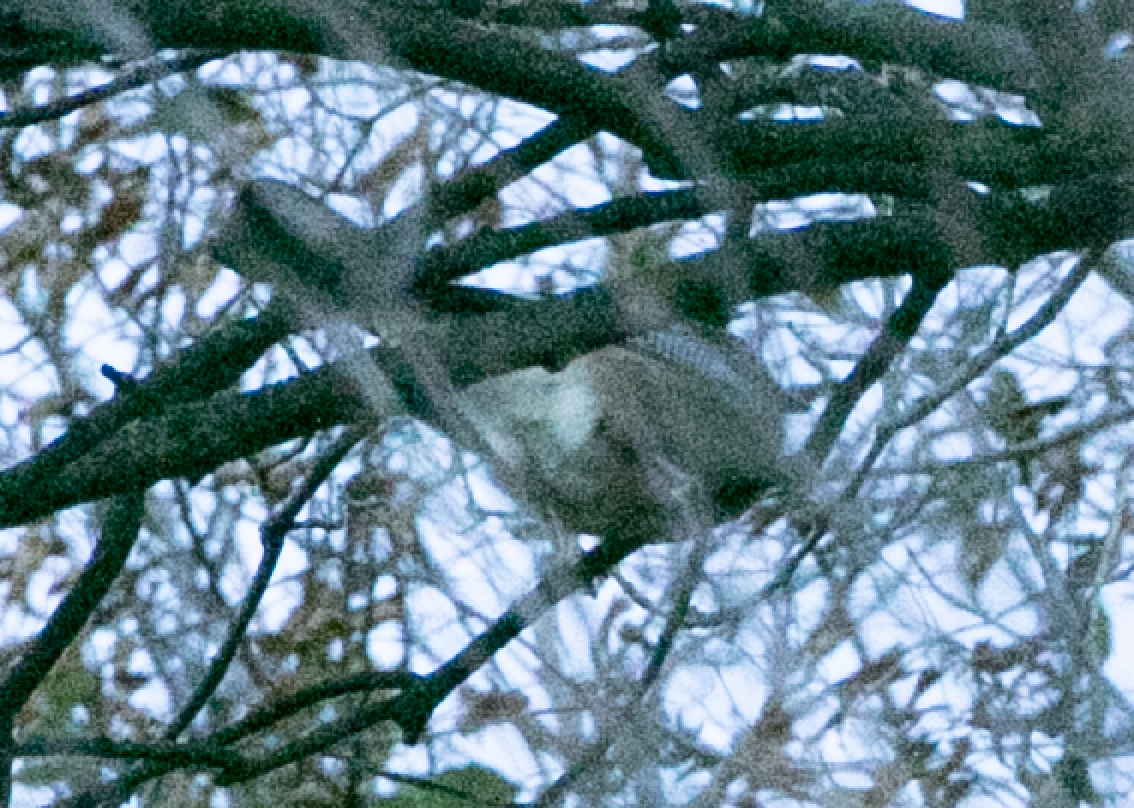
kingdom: Animalia
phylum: Chordata
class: Aves
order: Passeriformes
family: Corvidae
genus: Garrulus
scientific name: Garrulus glandarius
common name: Eurasian jay
